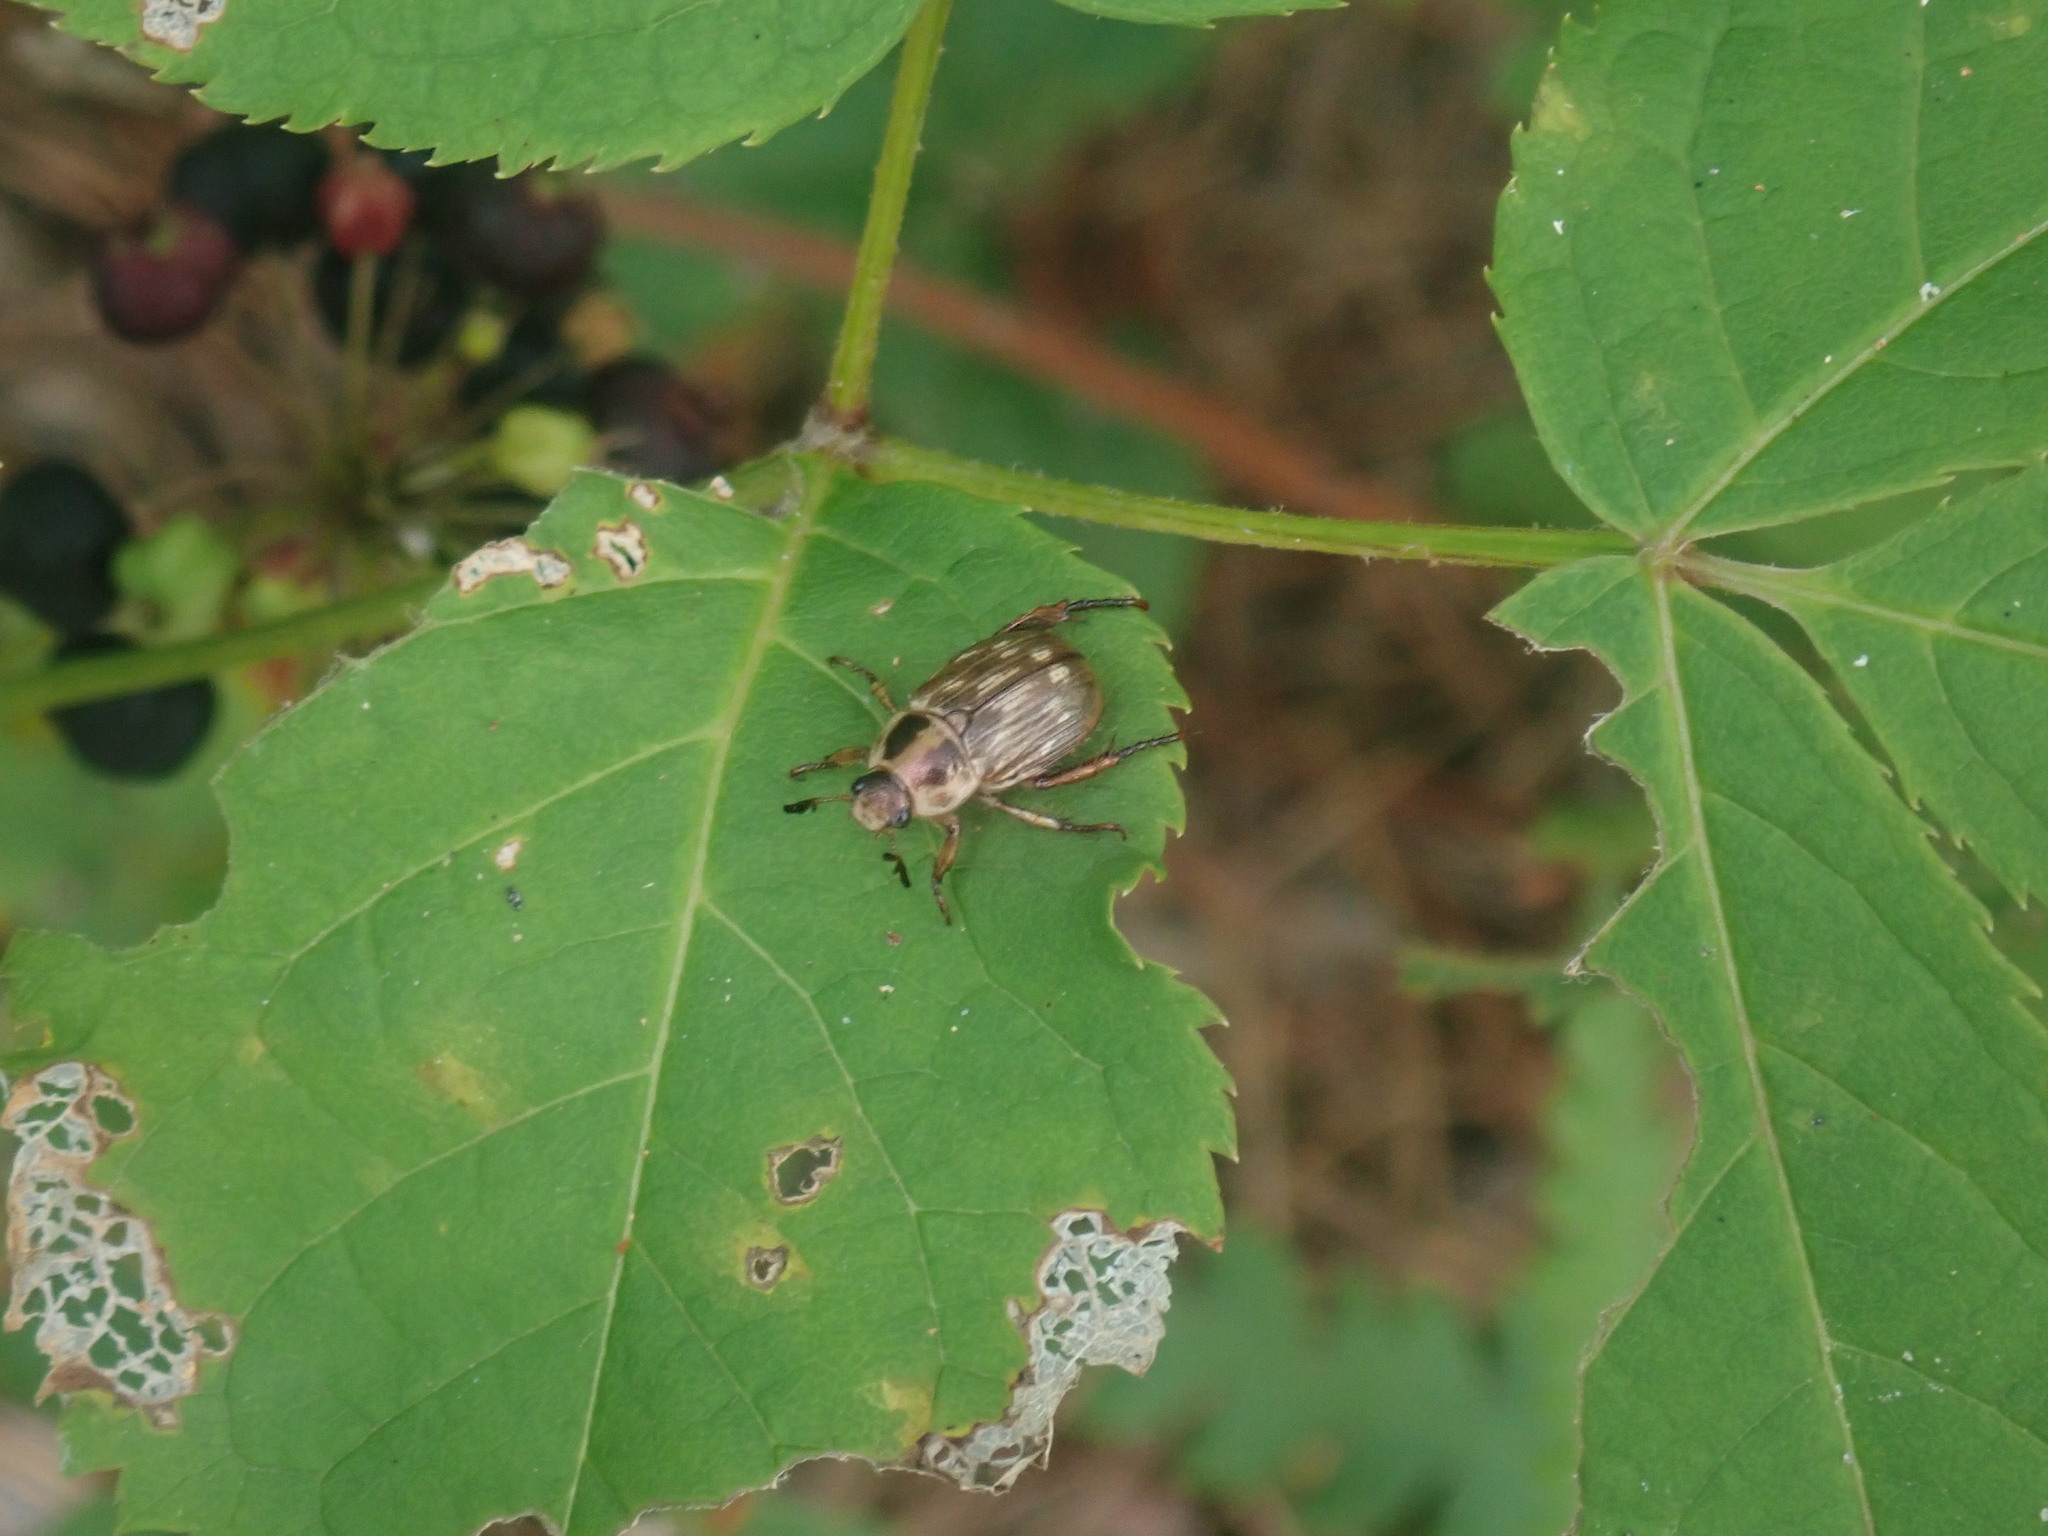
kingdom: Animalia
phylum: Arthropoda
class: Insecta
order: Coleoptera
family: Scarabaeidae
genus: Exomala
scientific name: Exomala orientalis
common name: Oriental beetle
